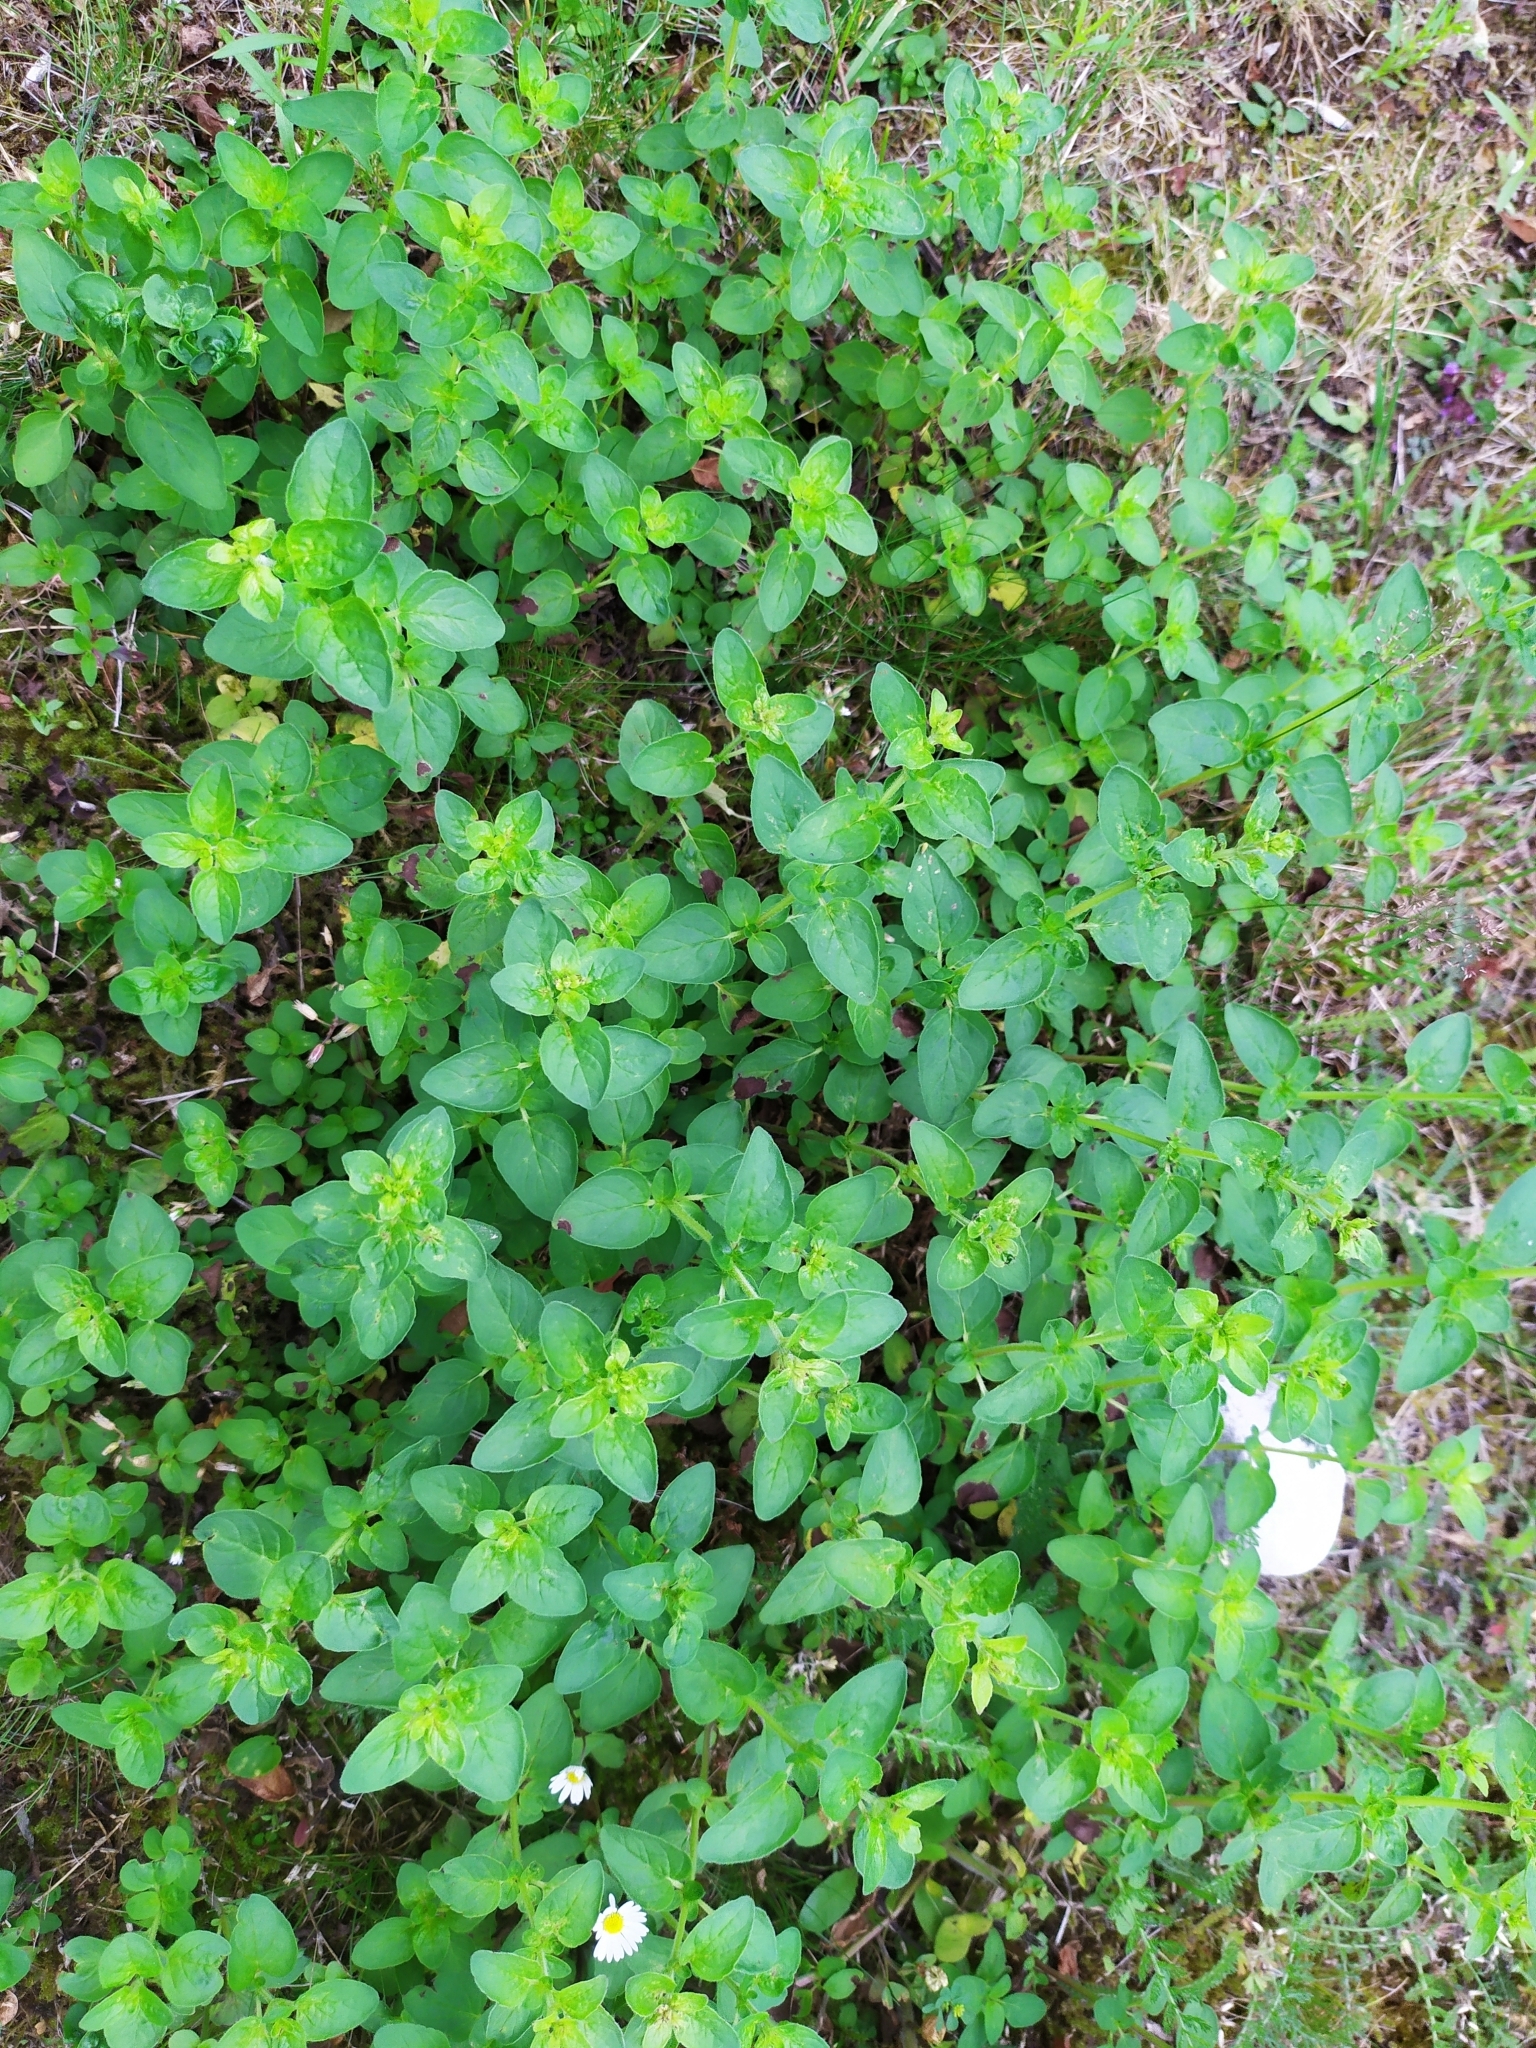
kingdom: Plantae
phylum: Tracheophyta
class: Magnoliopsida
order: Lamiales
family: Lamiaceae
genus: Origanum
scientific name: Origanum vulgare
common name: Wild marjoram
